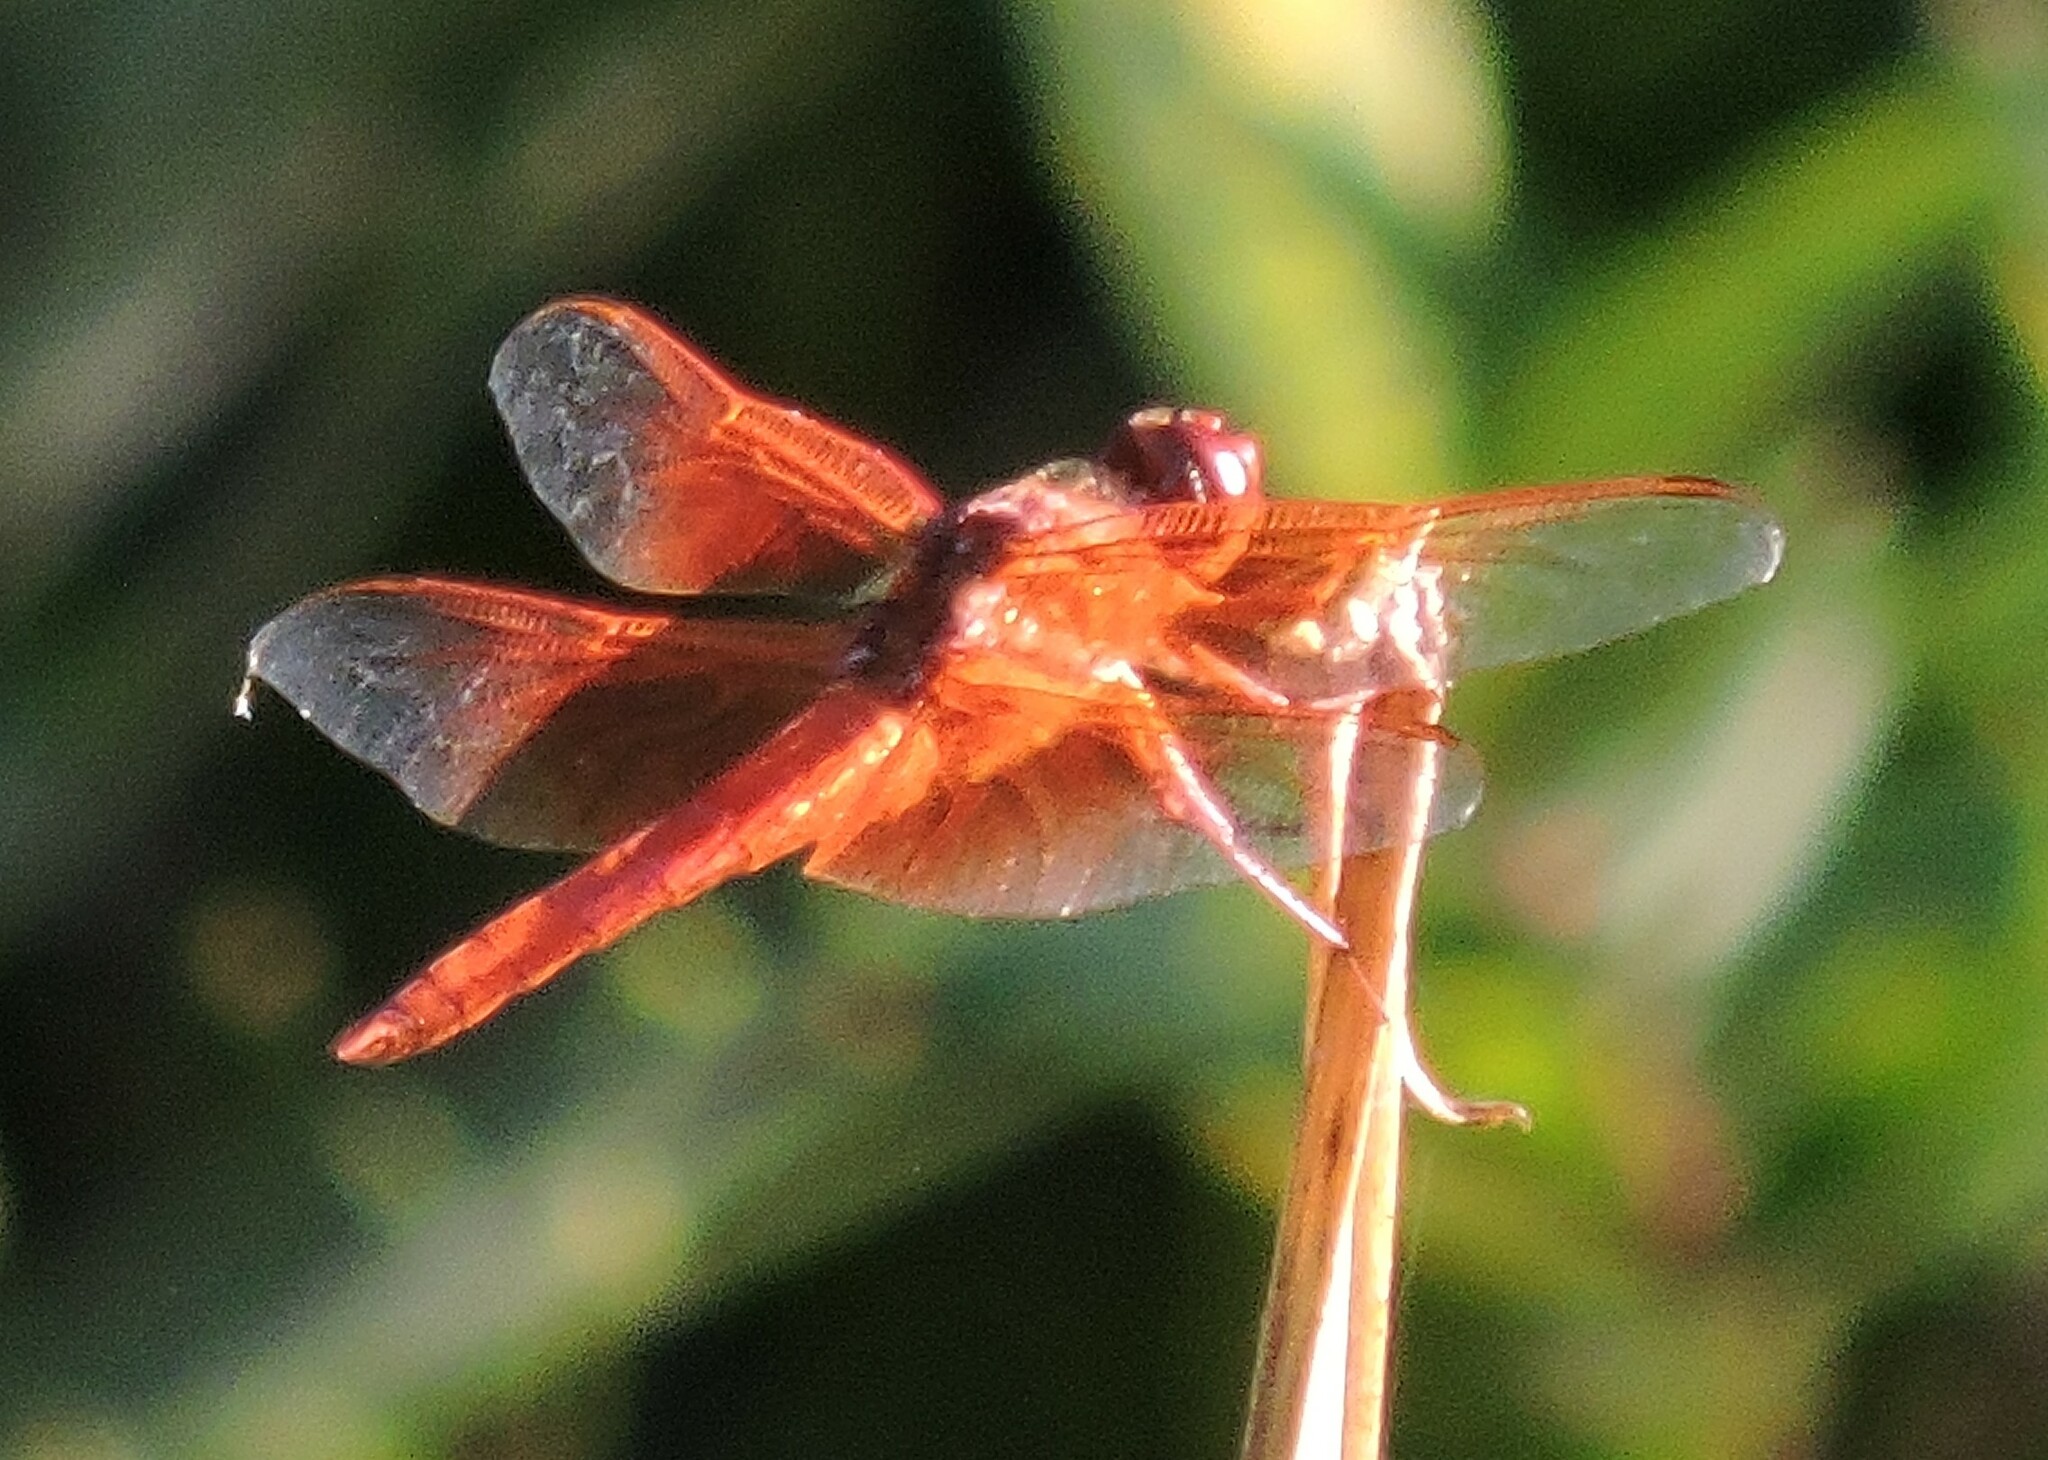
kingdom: Animalia
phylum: Arthropoda
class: Insecta
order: Odonata
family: Libellulidae
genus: Libellula
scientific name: Libellula saturata
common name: Flame skimmer
